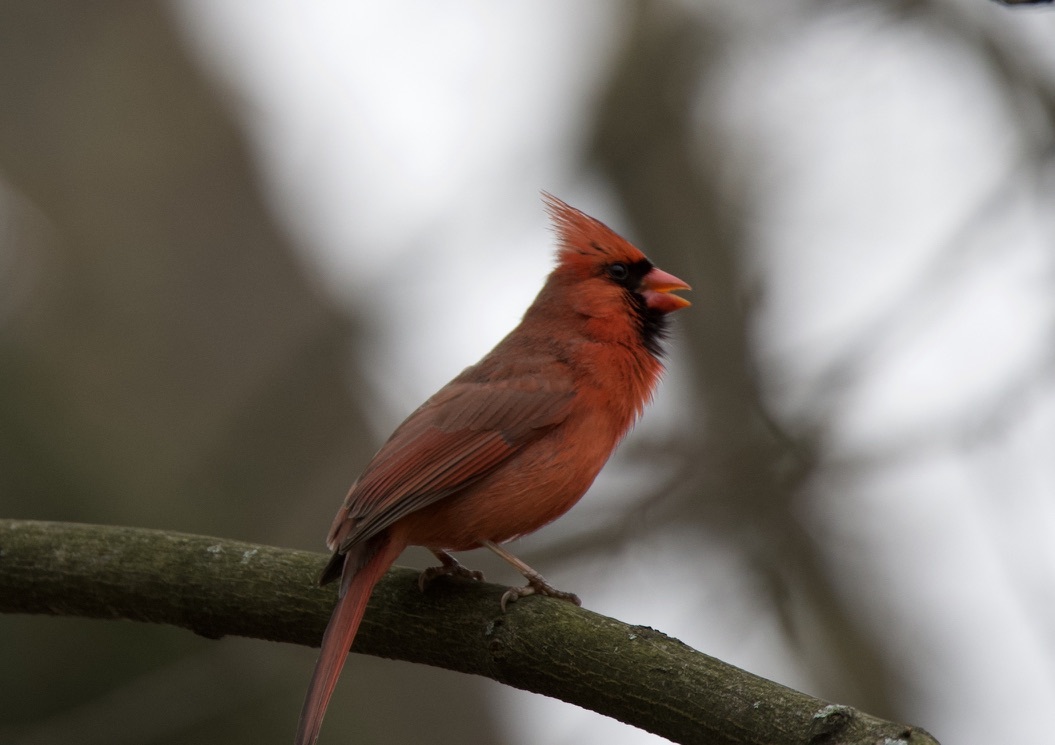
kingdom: Animalia
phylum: Chordata
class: Aves
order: Passeriformes
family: Cardinalidae
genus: Cardinalis
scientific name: Cardinalis cardinalis
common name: Northern cardinal
